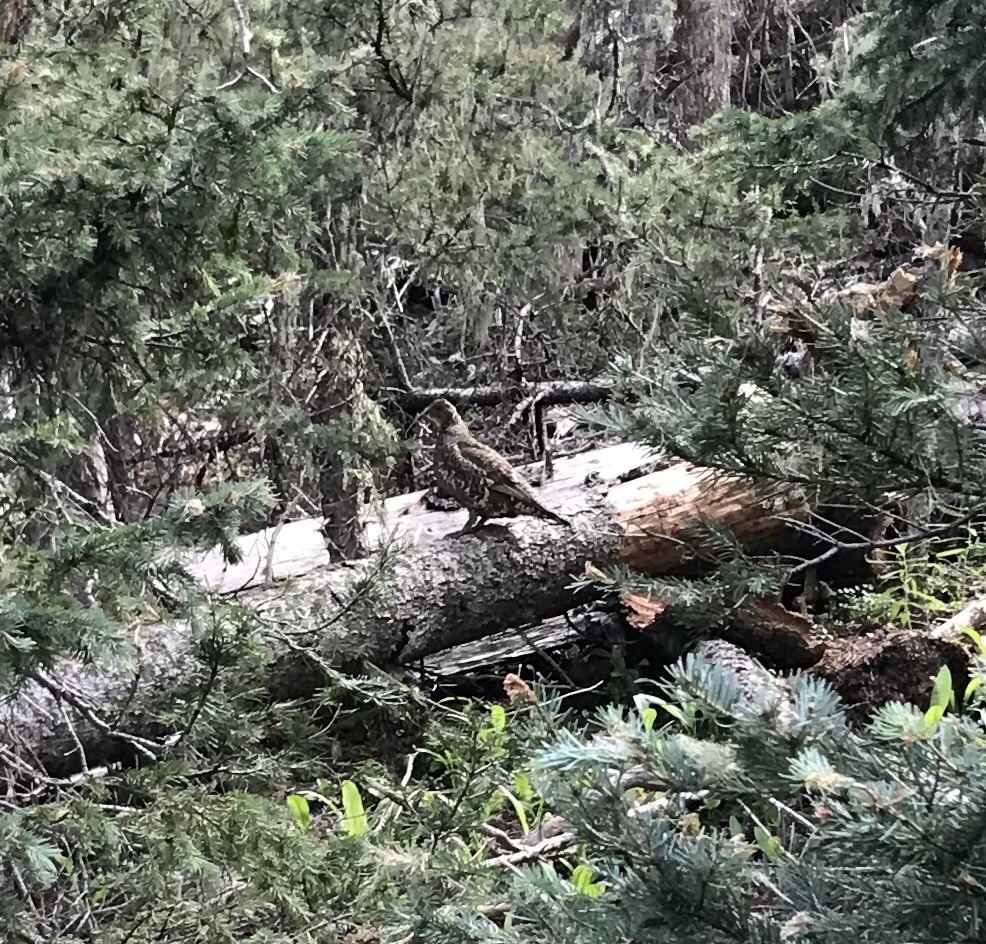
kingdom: Animalia
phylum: Chordata
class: Aves
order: Galliformes
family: Phasianidae
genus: Dendragapus
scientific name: Dendragapus obscurus
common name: Dusky grouse
